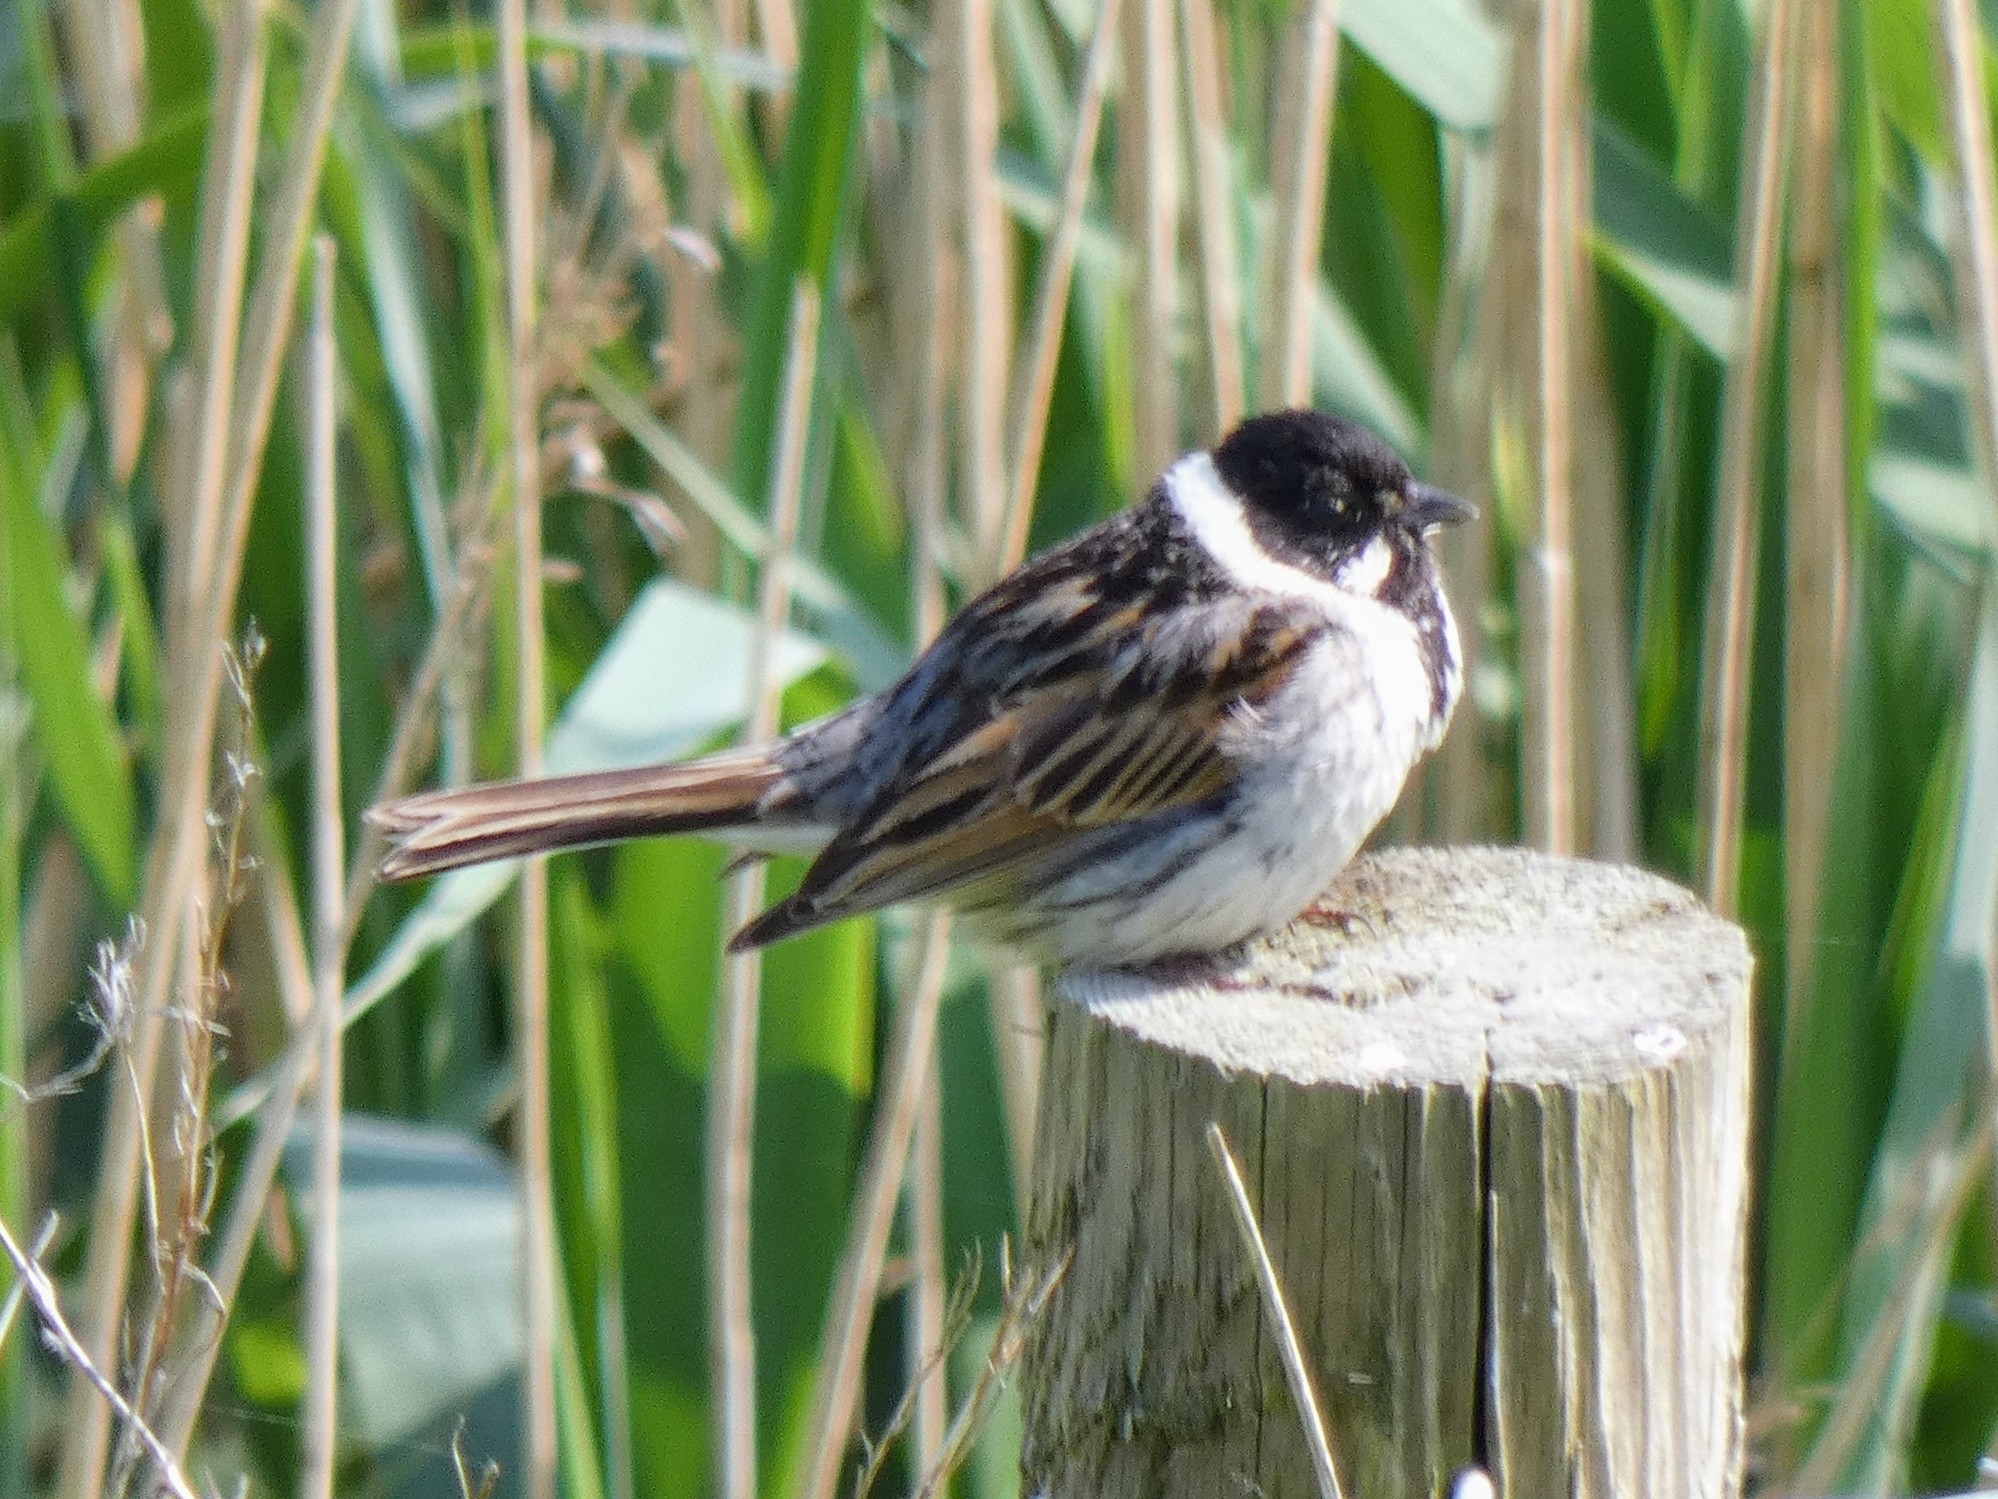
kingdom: Animalia
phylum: Chordata
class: Aves
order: Passeriformes
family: Emberizidae
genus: Emberiza
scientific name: Emberiza schoeniclus
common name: Reed bunting
